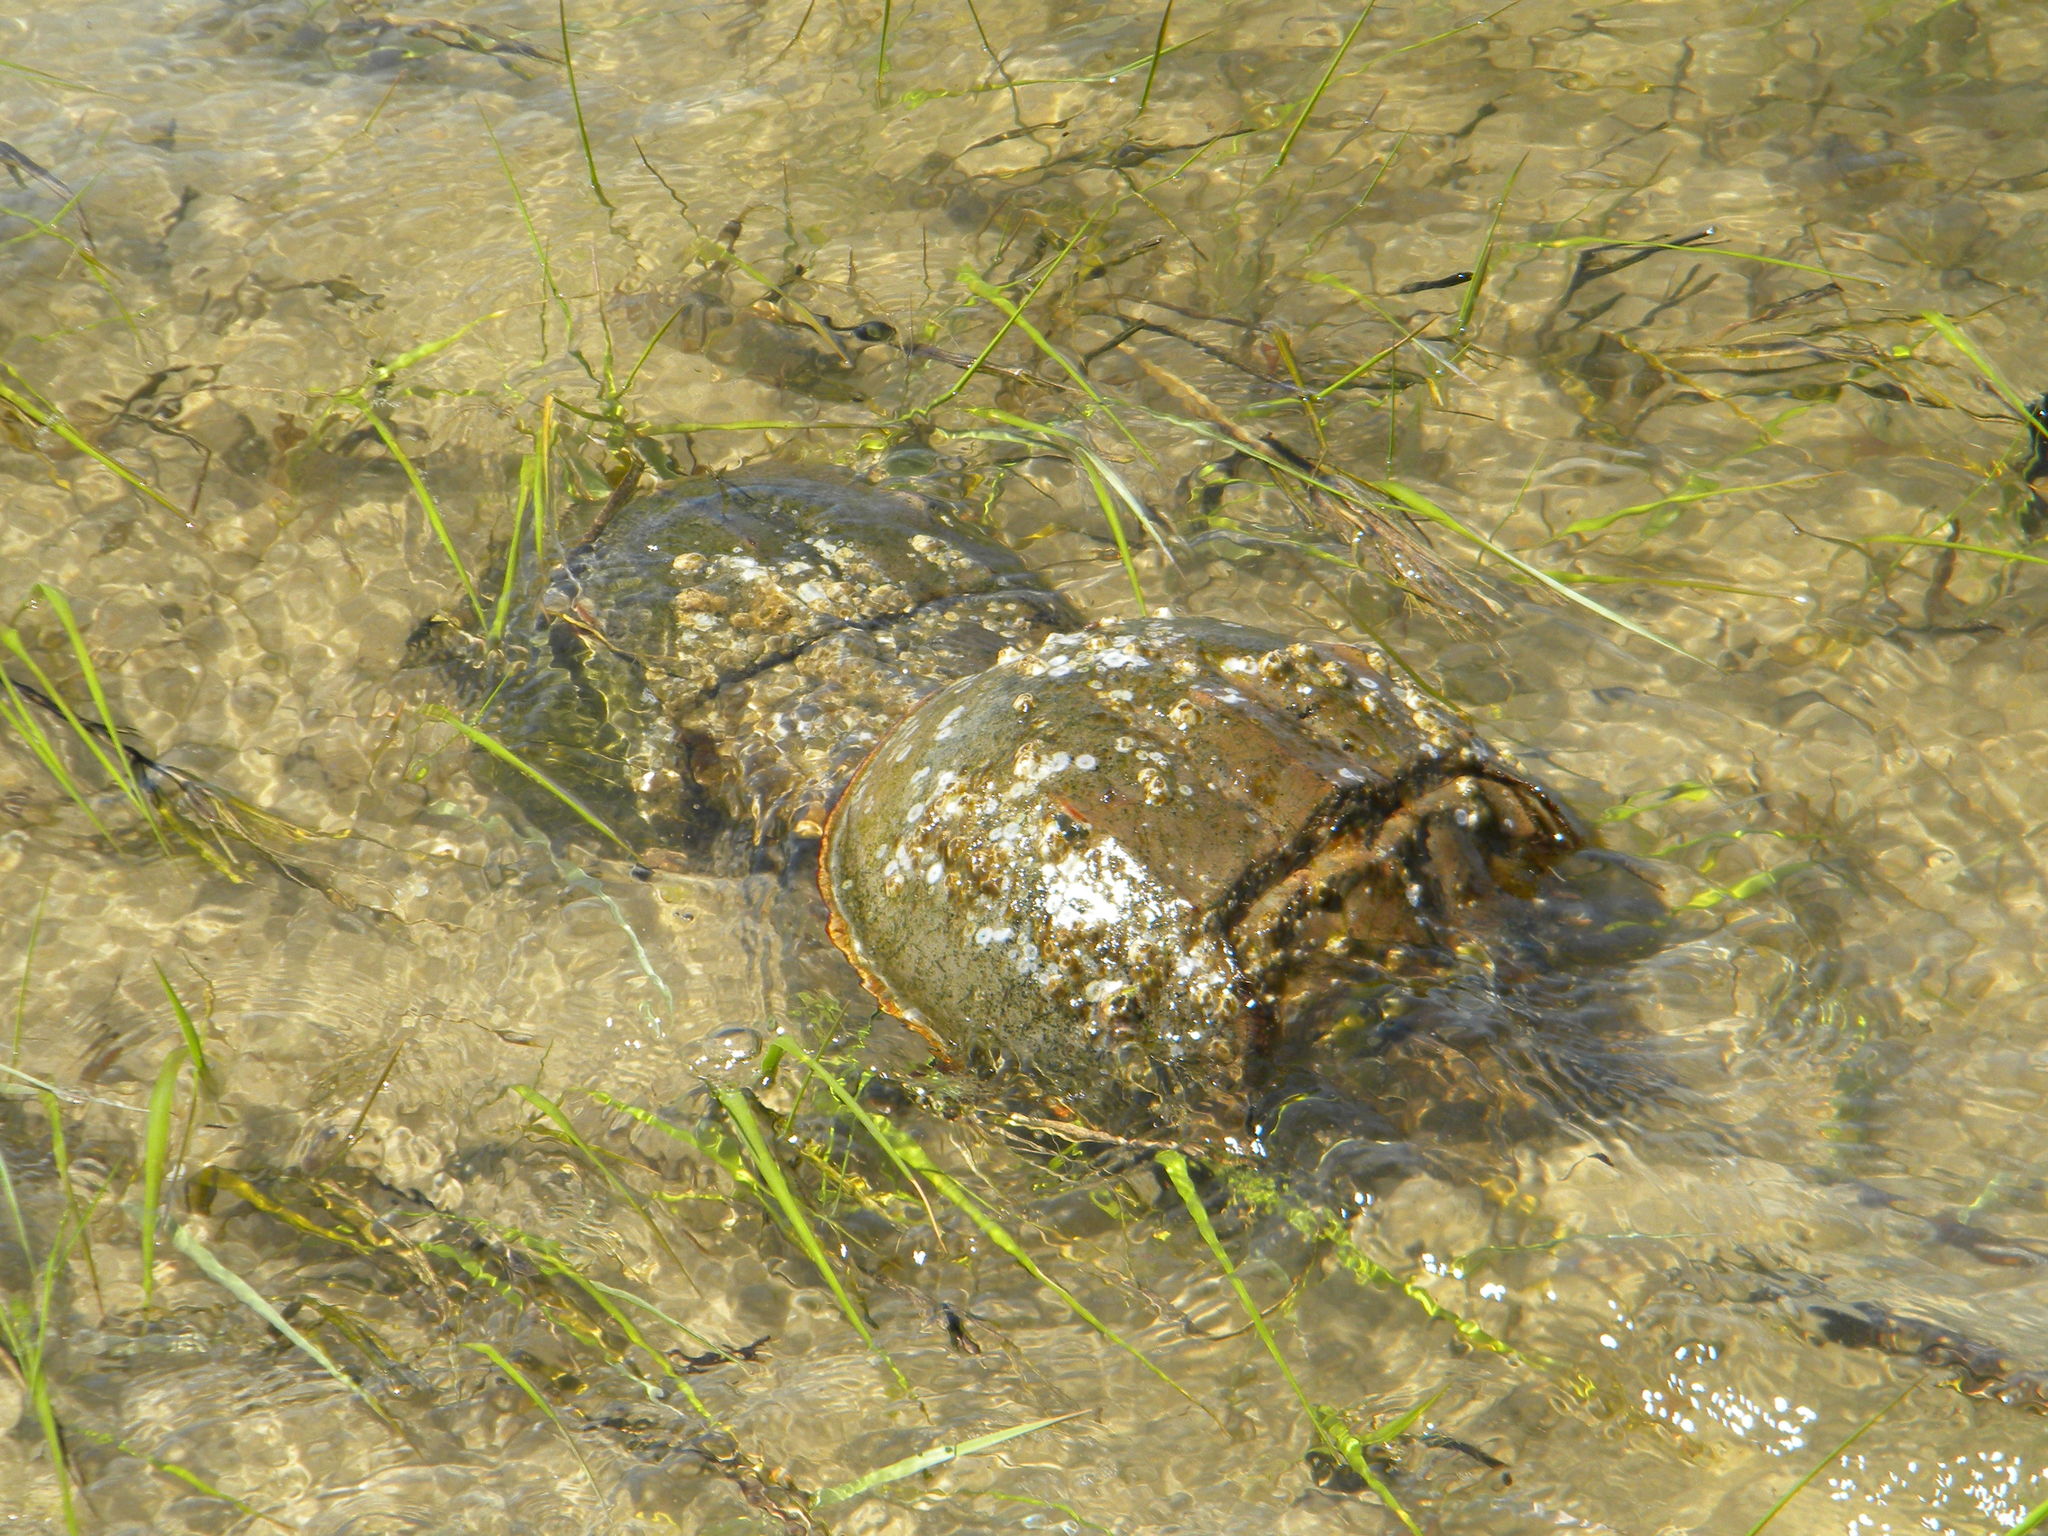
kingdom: Animalia
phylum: Arthropoda
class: Merostomata
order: Xiphosurida
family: Limulidae
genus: Limulus
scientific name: Limulus polyphemus
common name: Horseshoe crab
